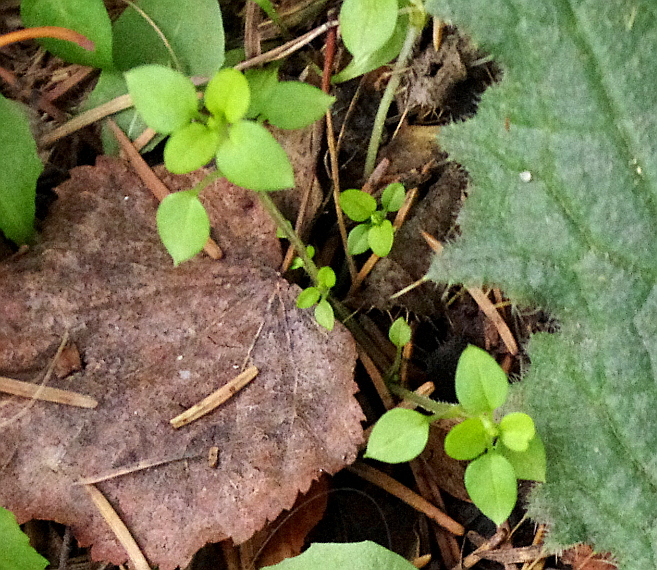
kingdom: Plantae
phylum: Tracheophyta
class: Magnoliopsida
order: Caryophyllales
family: Caryophyllaceae
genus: Stellaria
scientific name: Stellaria media
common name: Common chickweed
